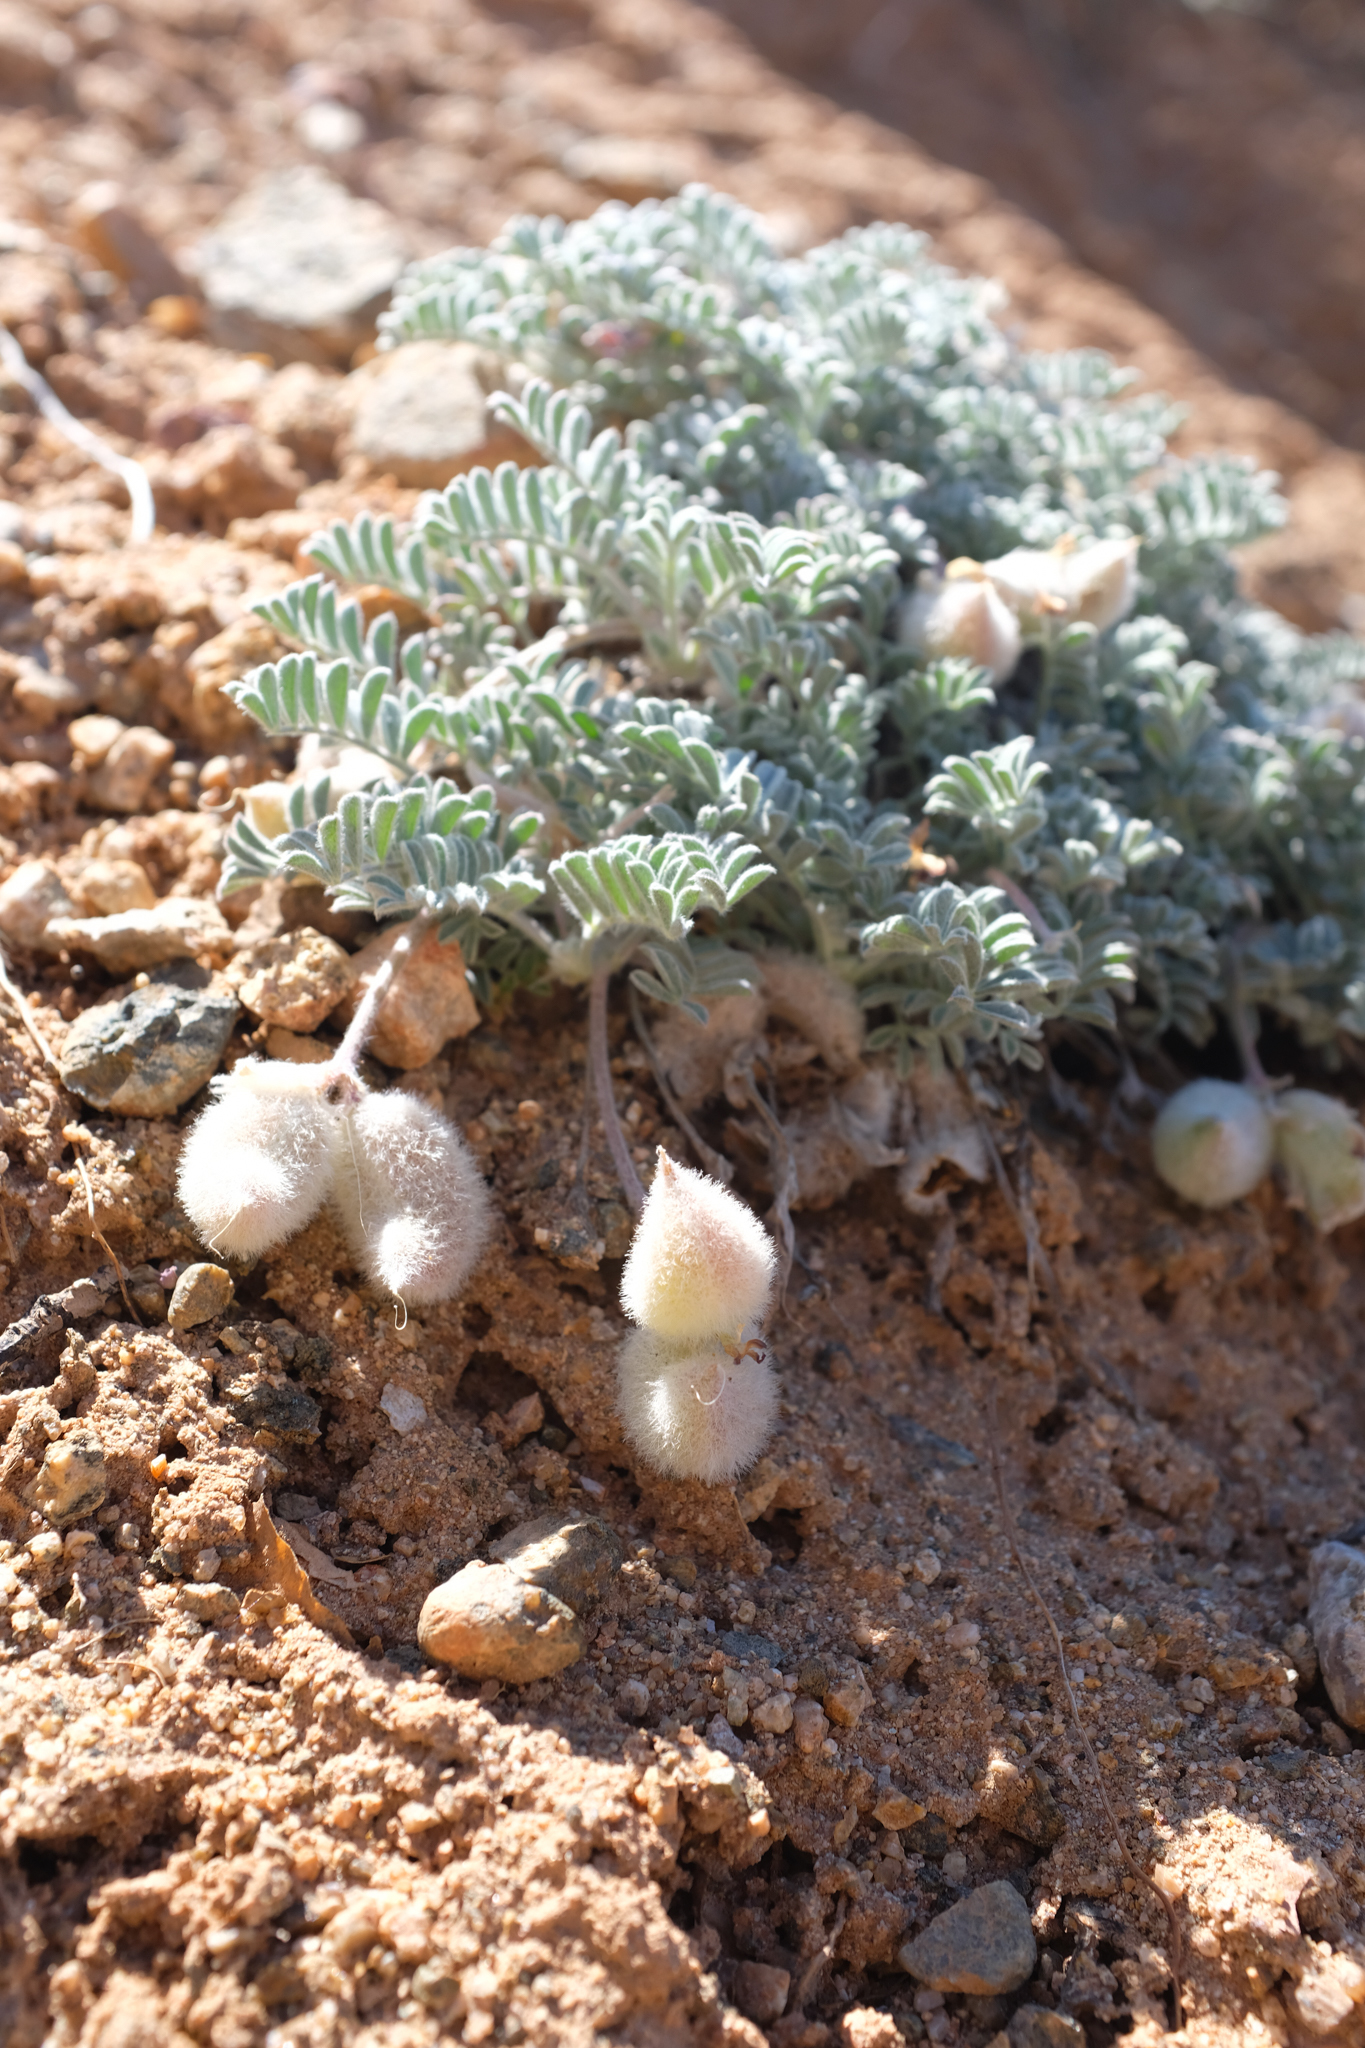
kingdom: Plantae
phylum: Tracheophyta
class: Magnoliopsida
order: Fabales
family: Fabaceae
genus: Astragalus
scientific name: Astragalus purshii
